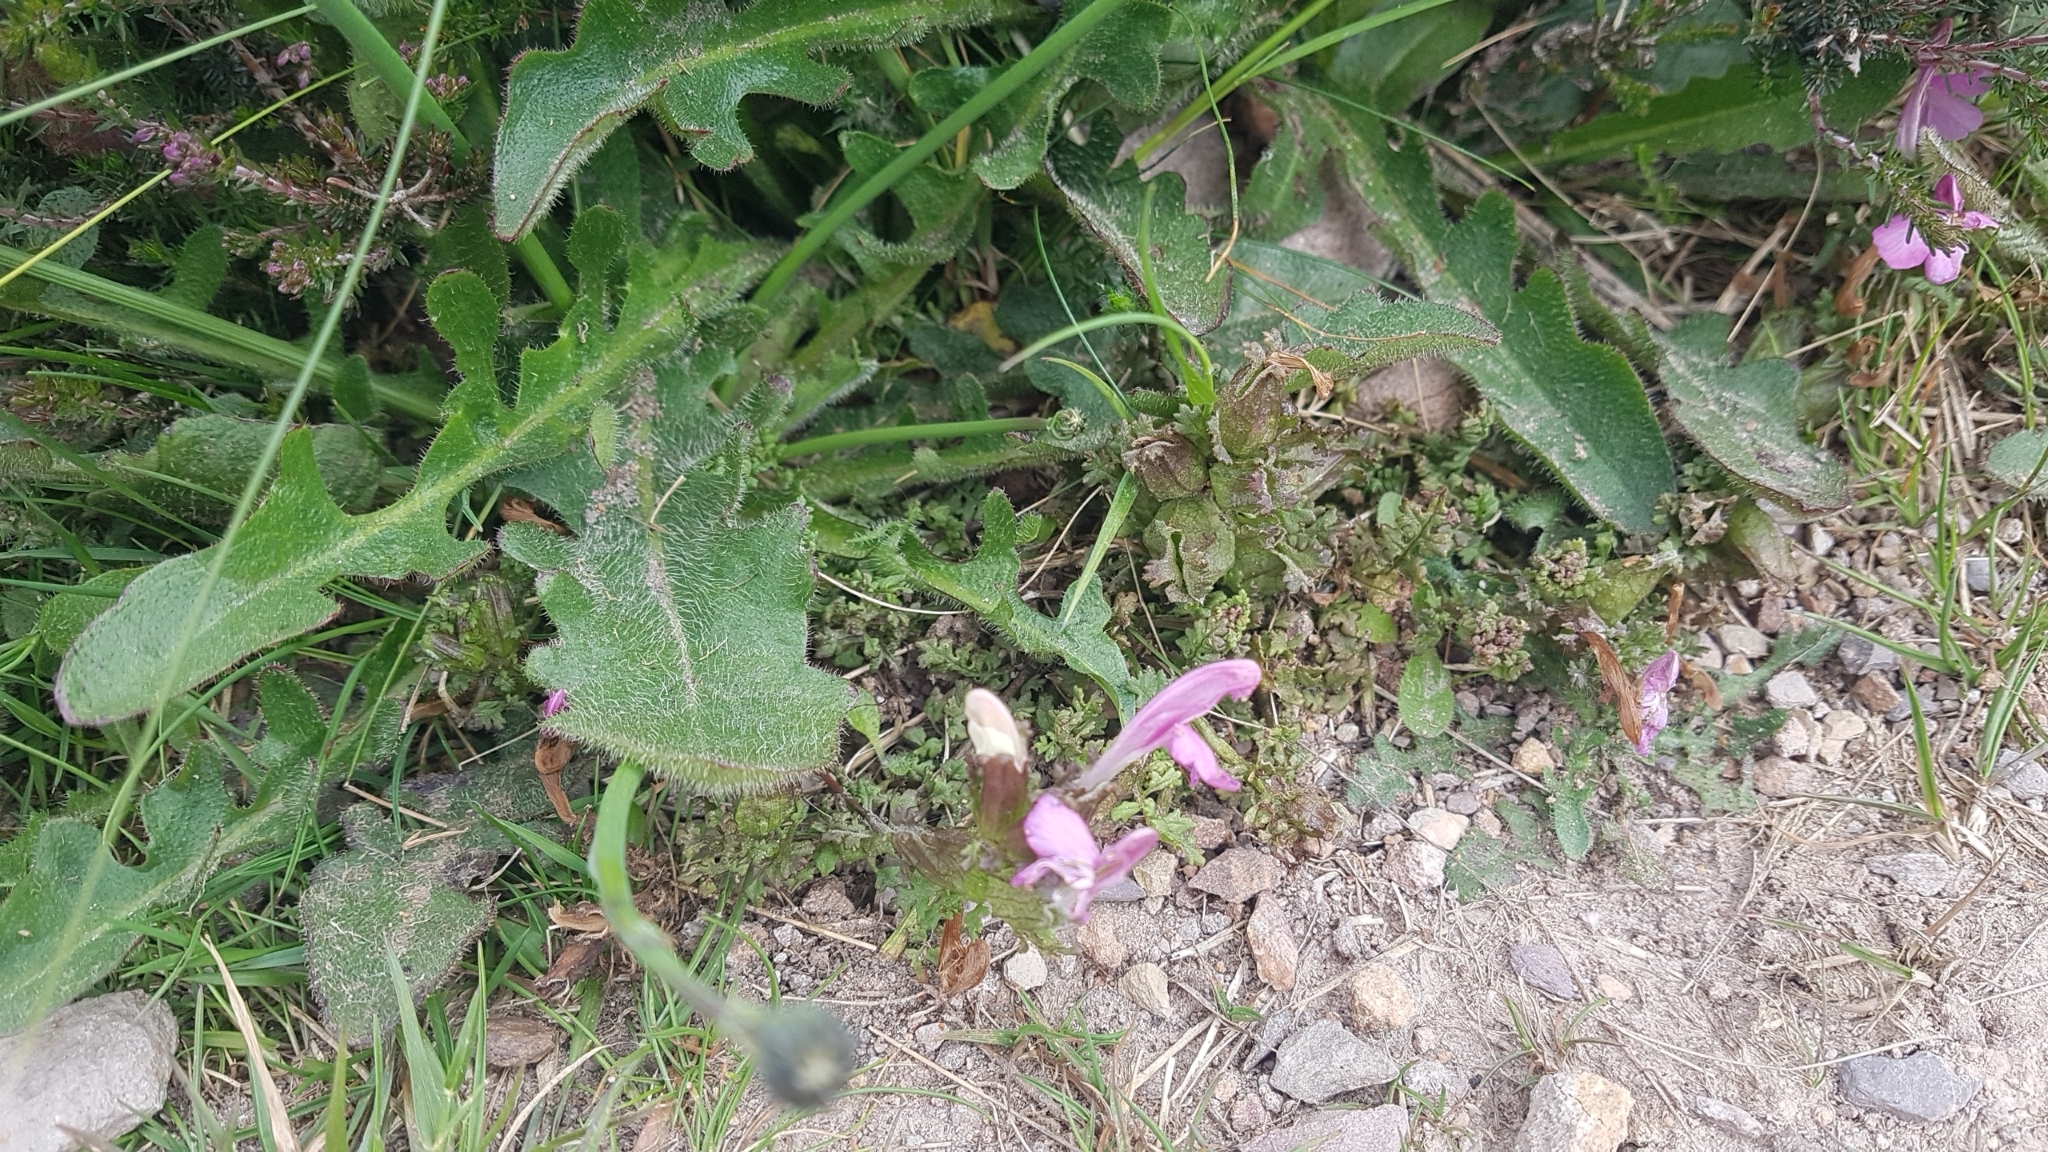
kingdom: Plantae
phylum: Tracheophyta
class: Magnoliopsida
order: Lamiales
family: Orobanchaceae
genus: Pedicularis
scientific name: Pedicularis sylvatica
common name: Lousewort
